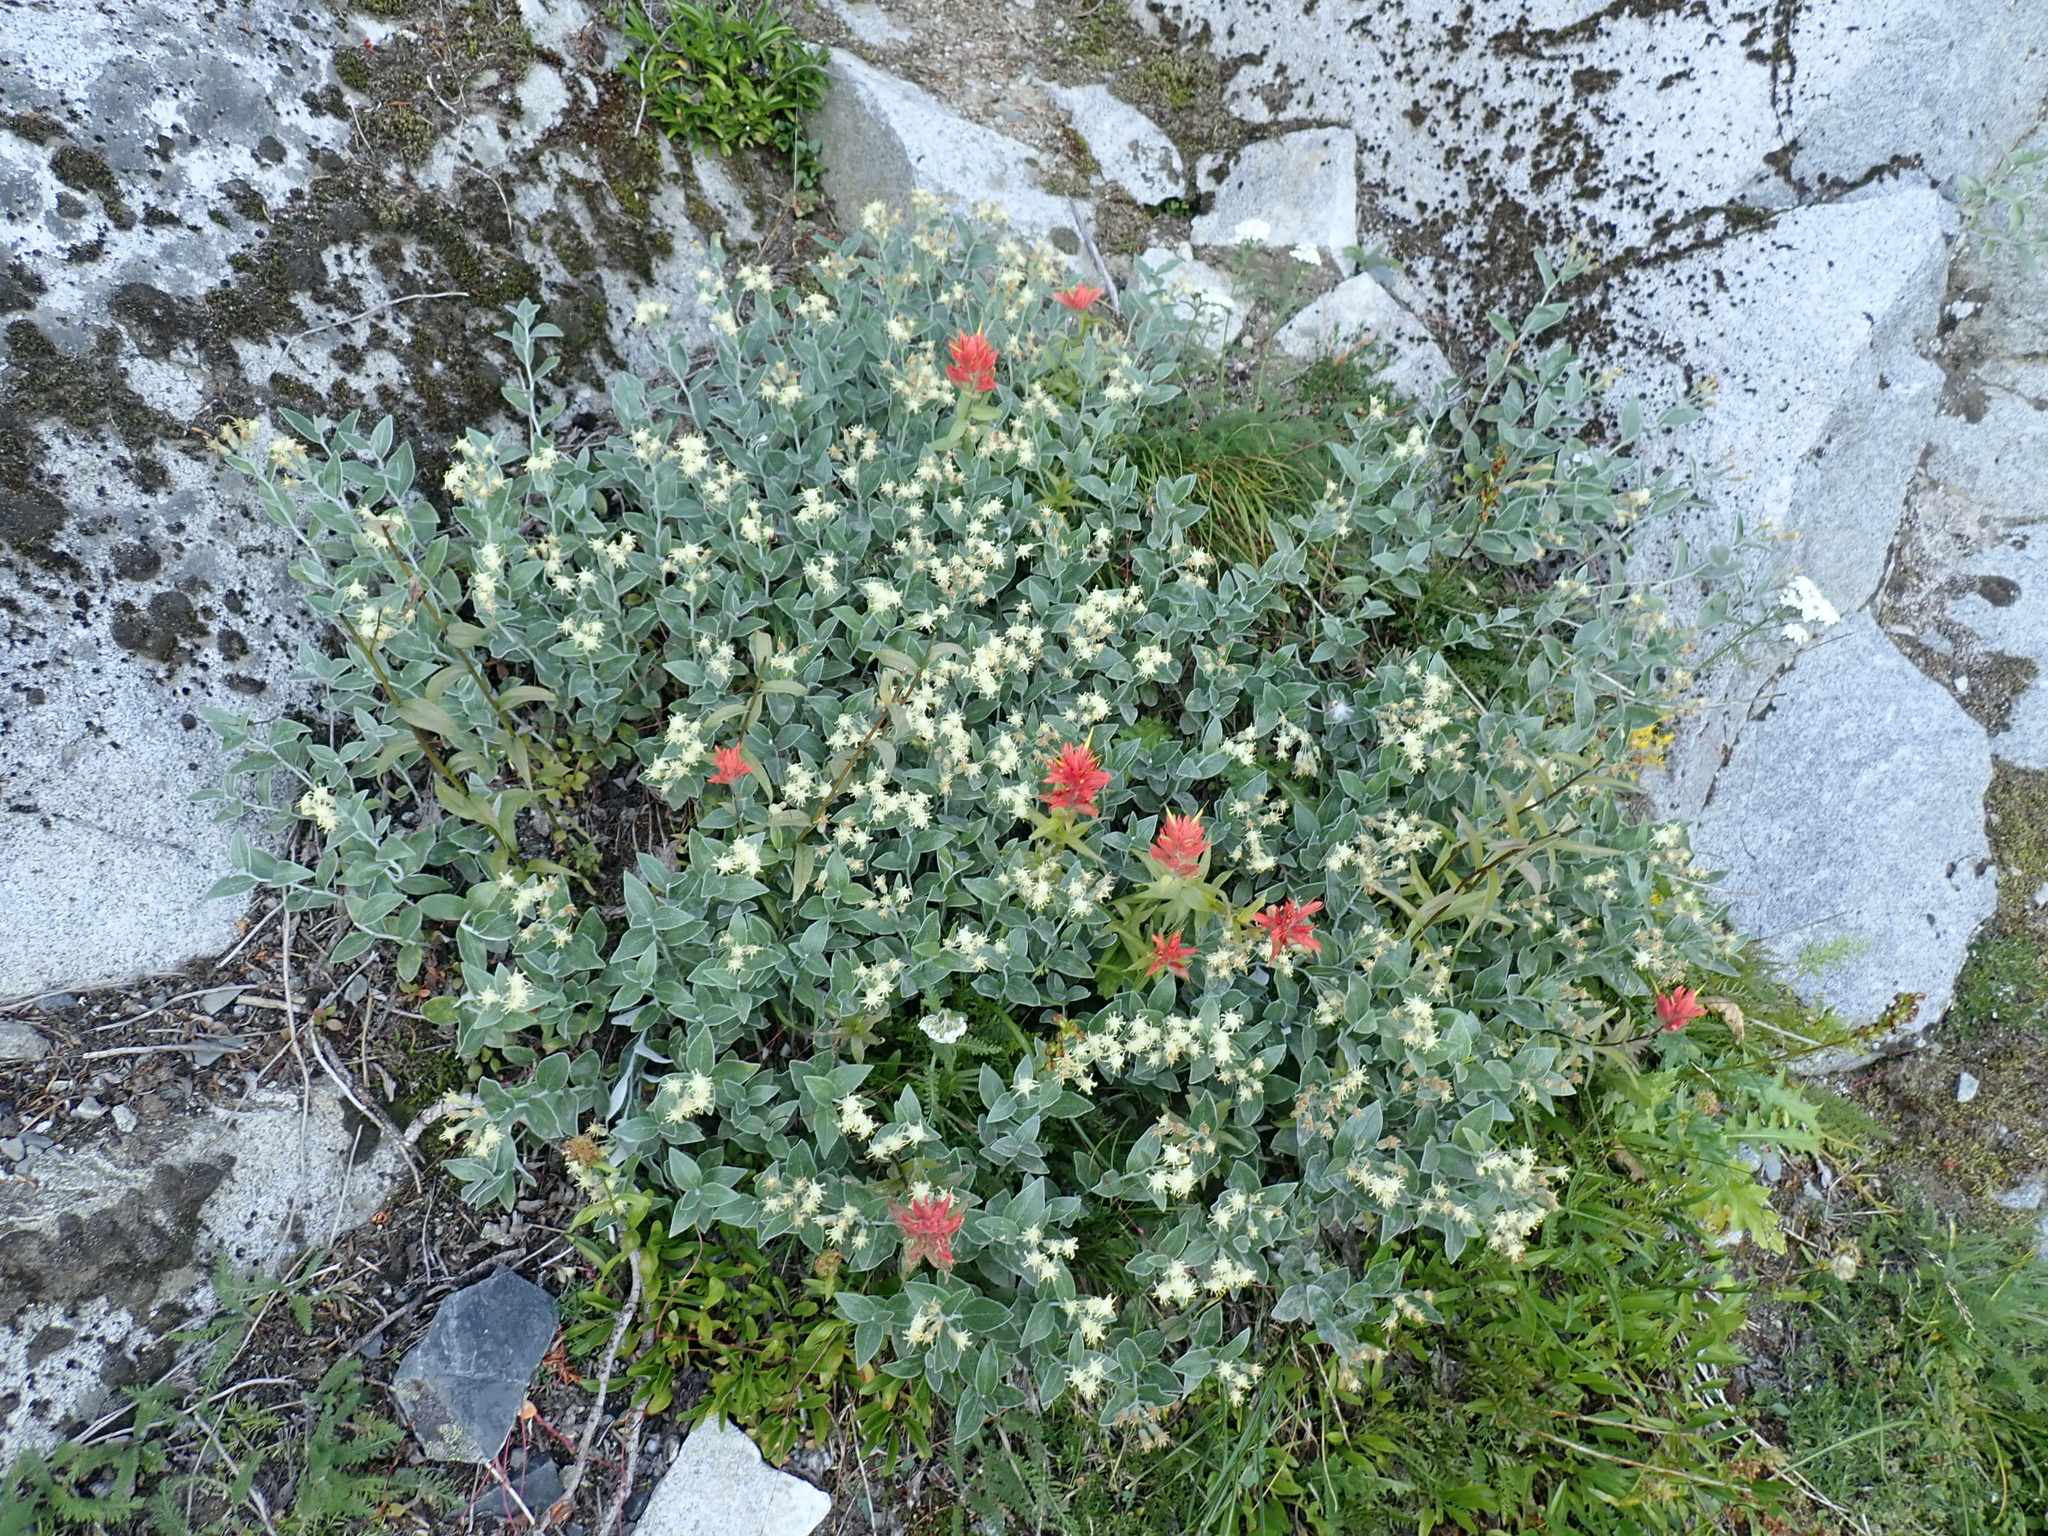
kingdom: Plantae
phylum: Tracheophyta
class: Magnoliopsida
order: Asterales
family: Asteraceae
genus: Luina
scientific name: Luina hypoleuca
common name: Little-leaved luina
